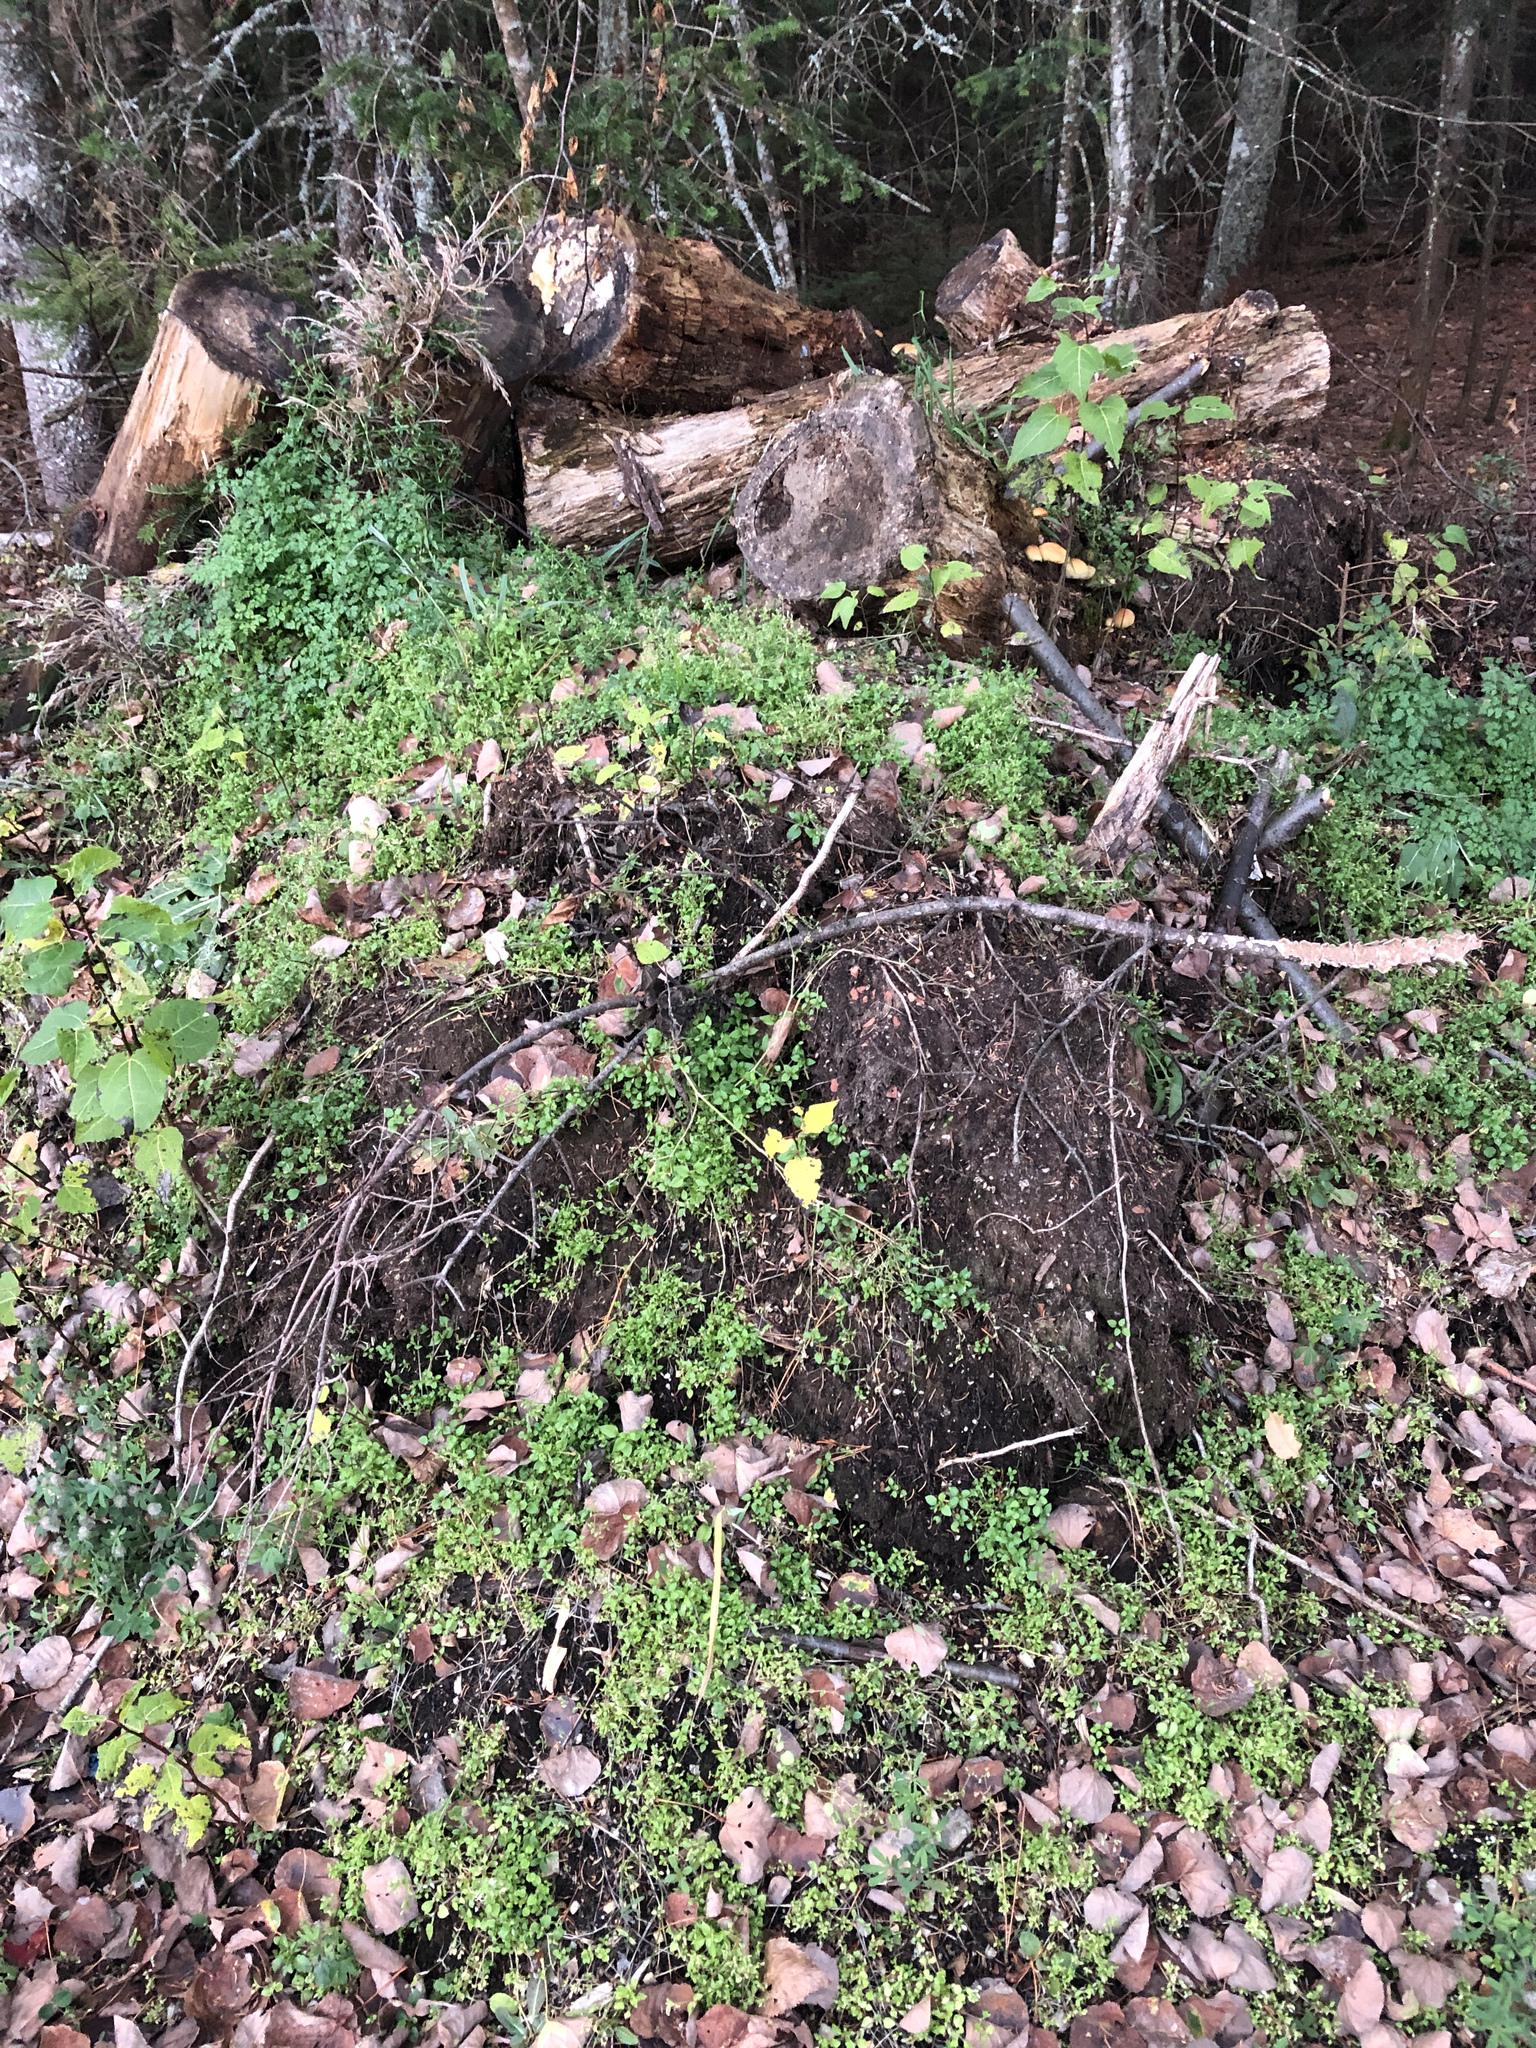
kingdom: Plantae
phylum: Tracheophyta
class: Magnoliopsida
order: Caryophyllales
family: Caryophyllaceae
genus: Stellaria
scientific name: Stellaria media
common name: Common chickweed
